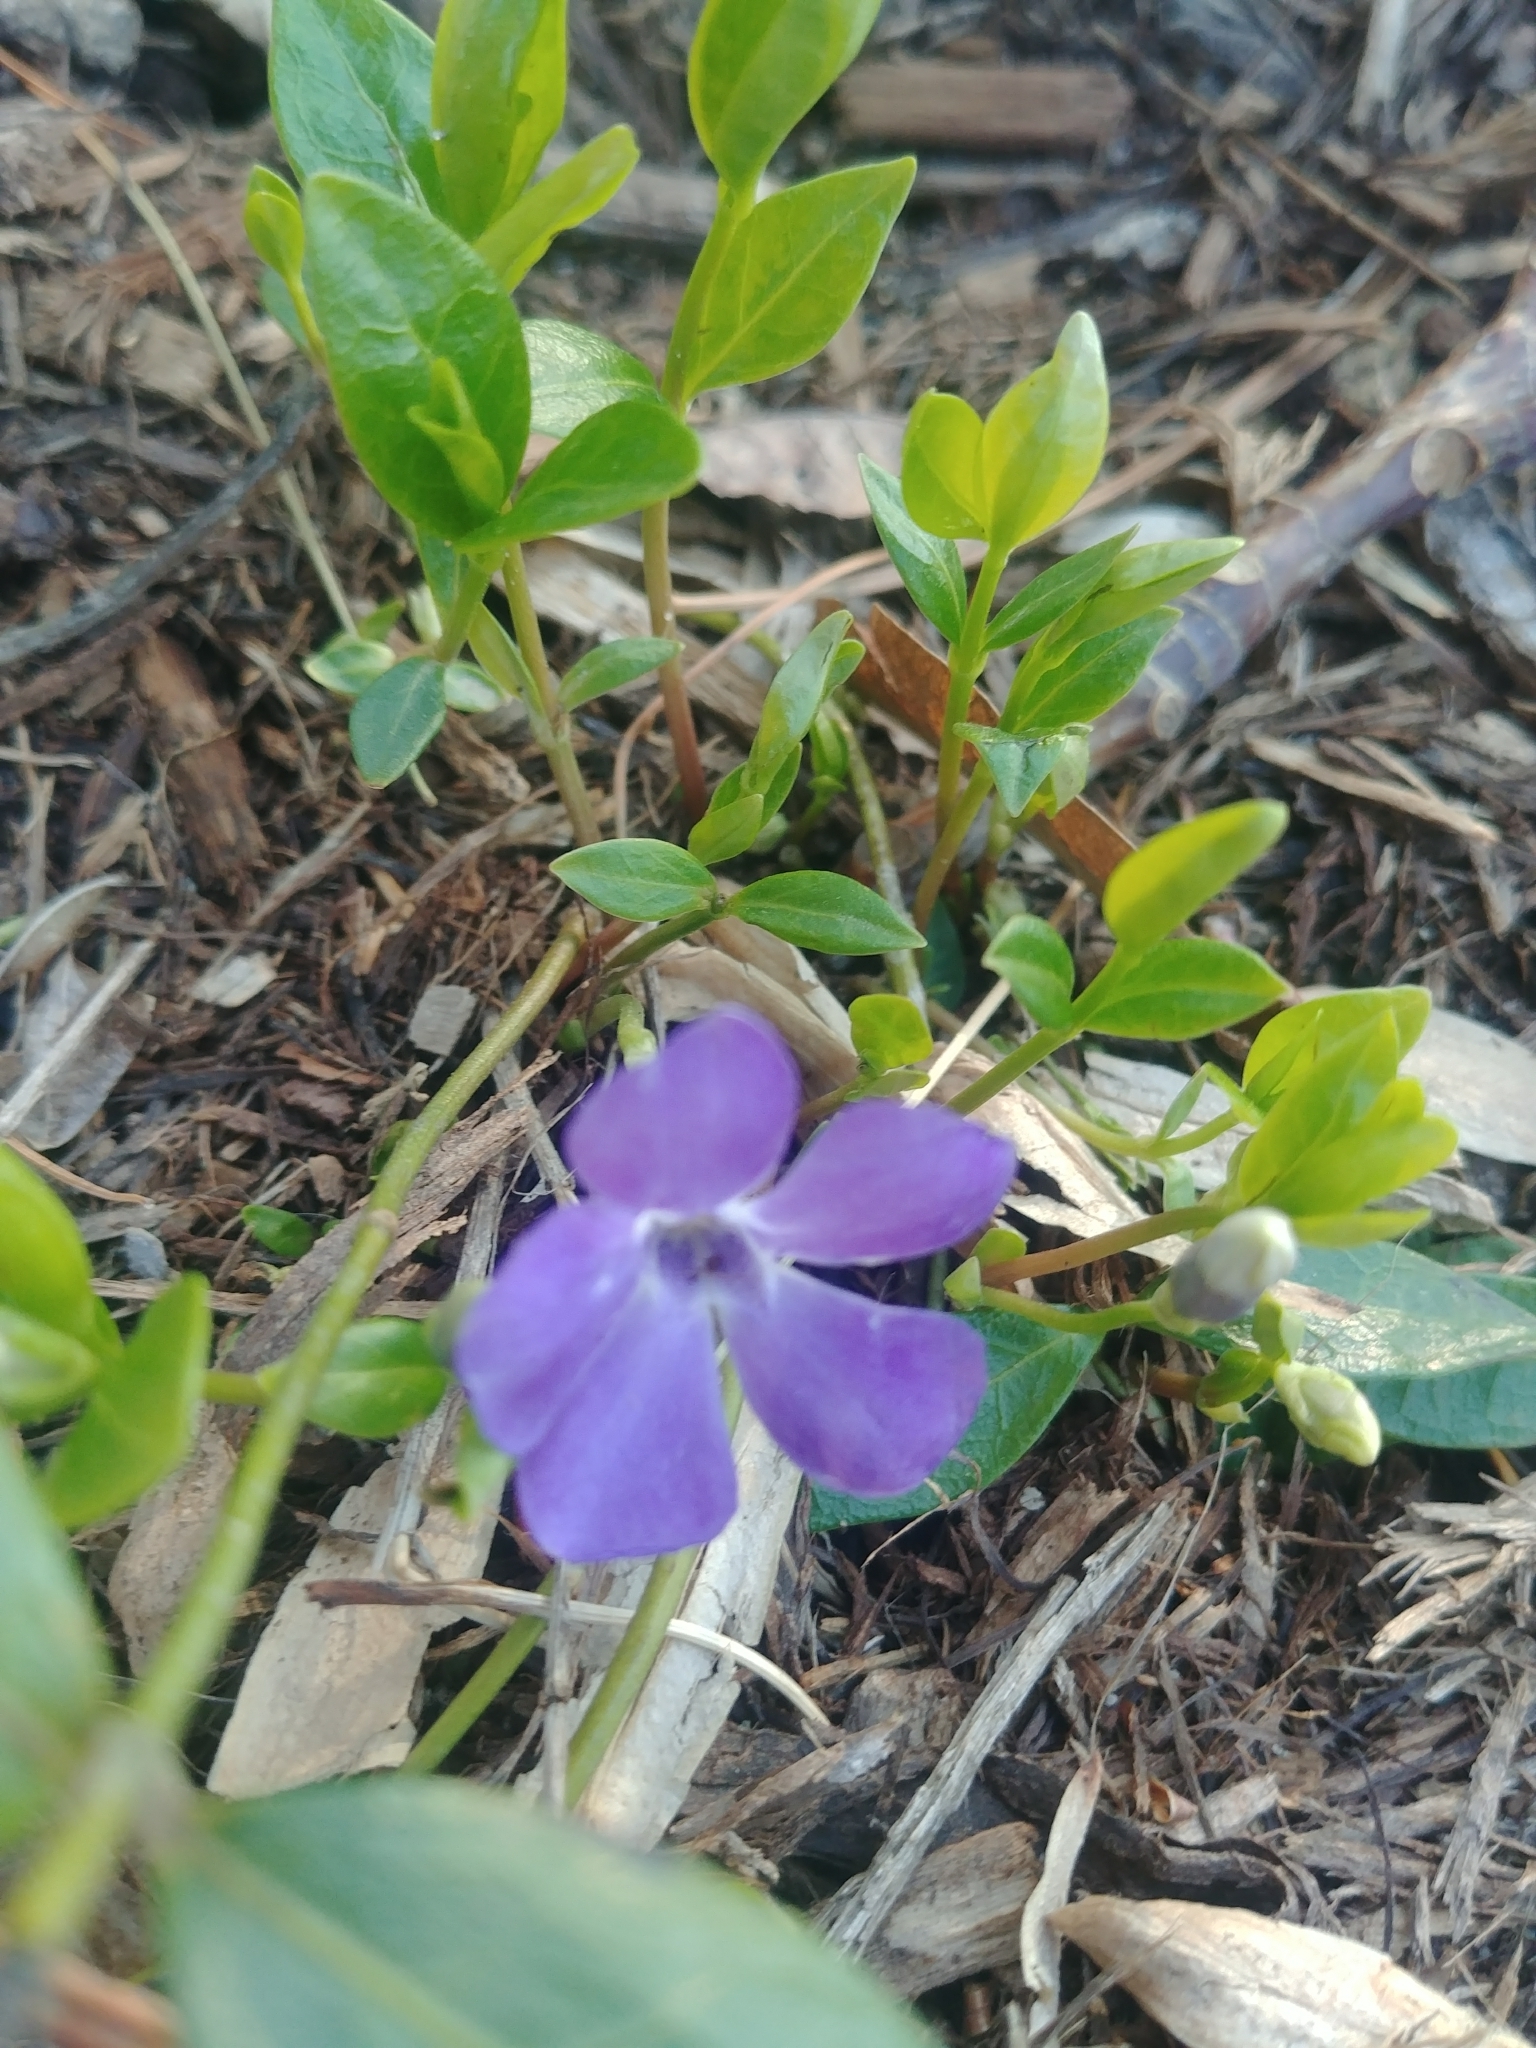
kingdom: Plantae
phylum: Tracheophyta
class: Magnoliopsida
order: Gentianales
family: Apocynaceae
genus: Vinca
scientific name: Vinca minor
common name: Lesser periwinkle
